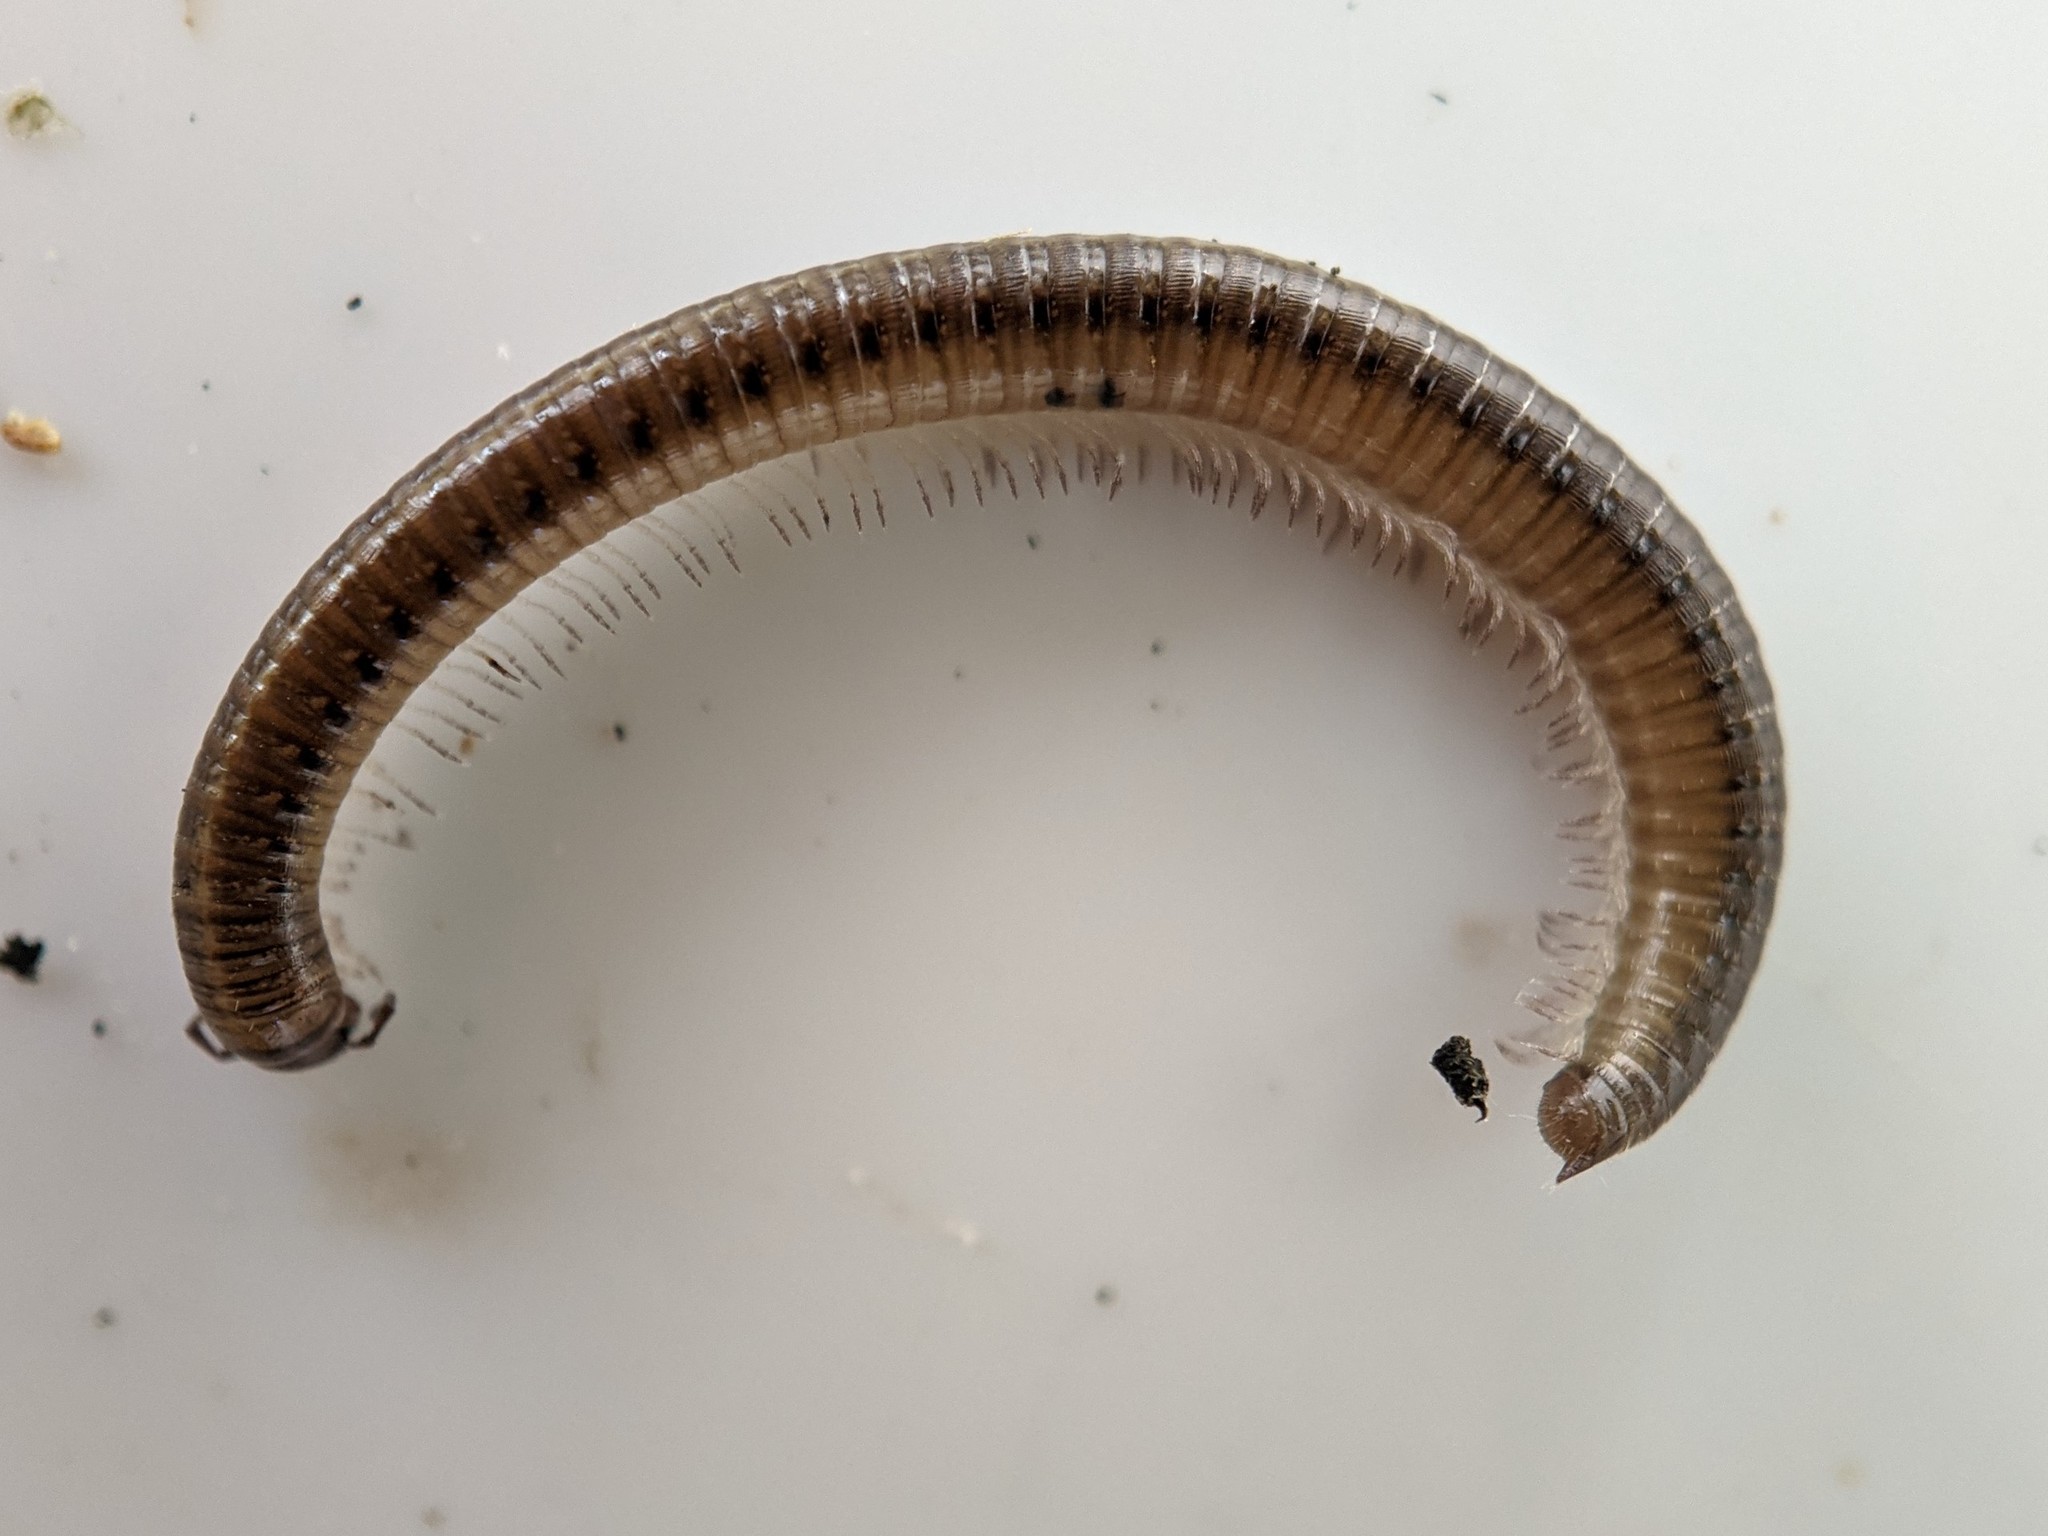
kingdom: Animalia
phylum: Arthropoda
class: Diplopoda
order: Julida
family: Julidae
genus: Leptoiulus
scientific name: Leptoiulus belgicus
